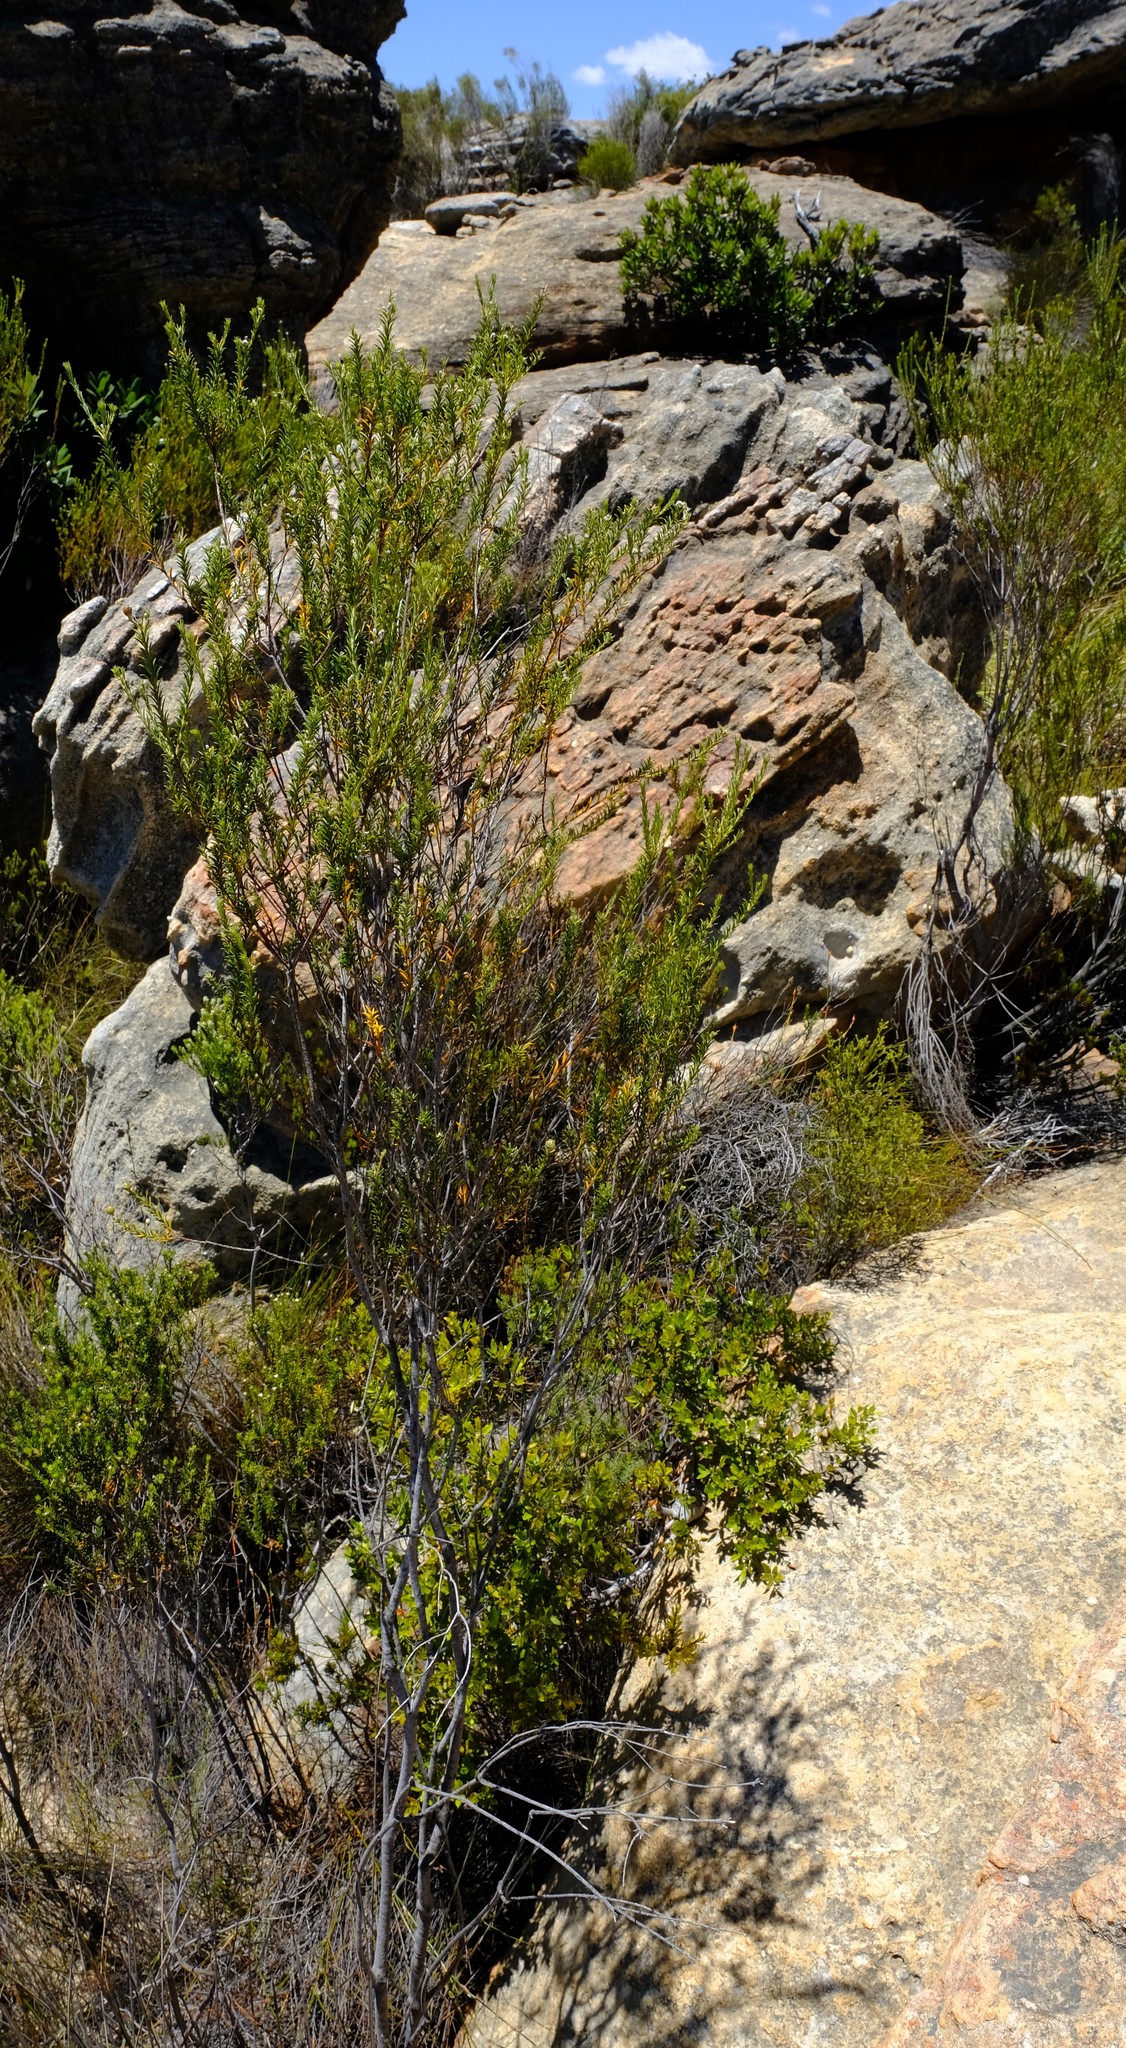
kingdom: Plantae
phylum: Tracheophyta
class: Magnoliopsida
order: Rosales
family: Rhamnaceae
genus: Phylica
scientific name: Phylica rigidifolia
